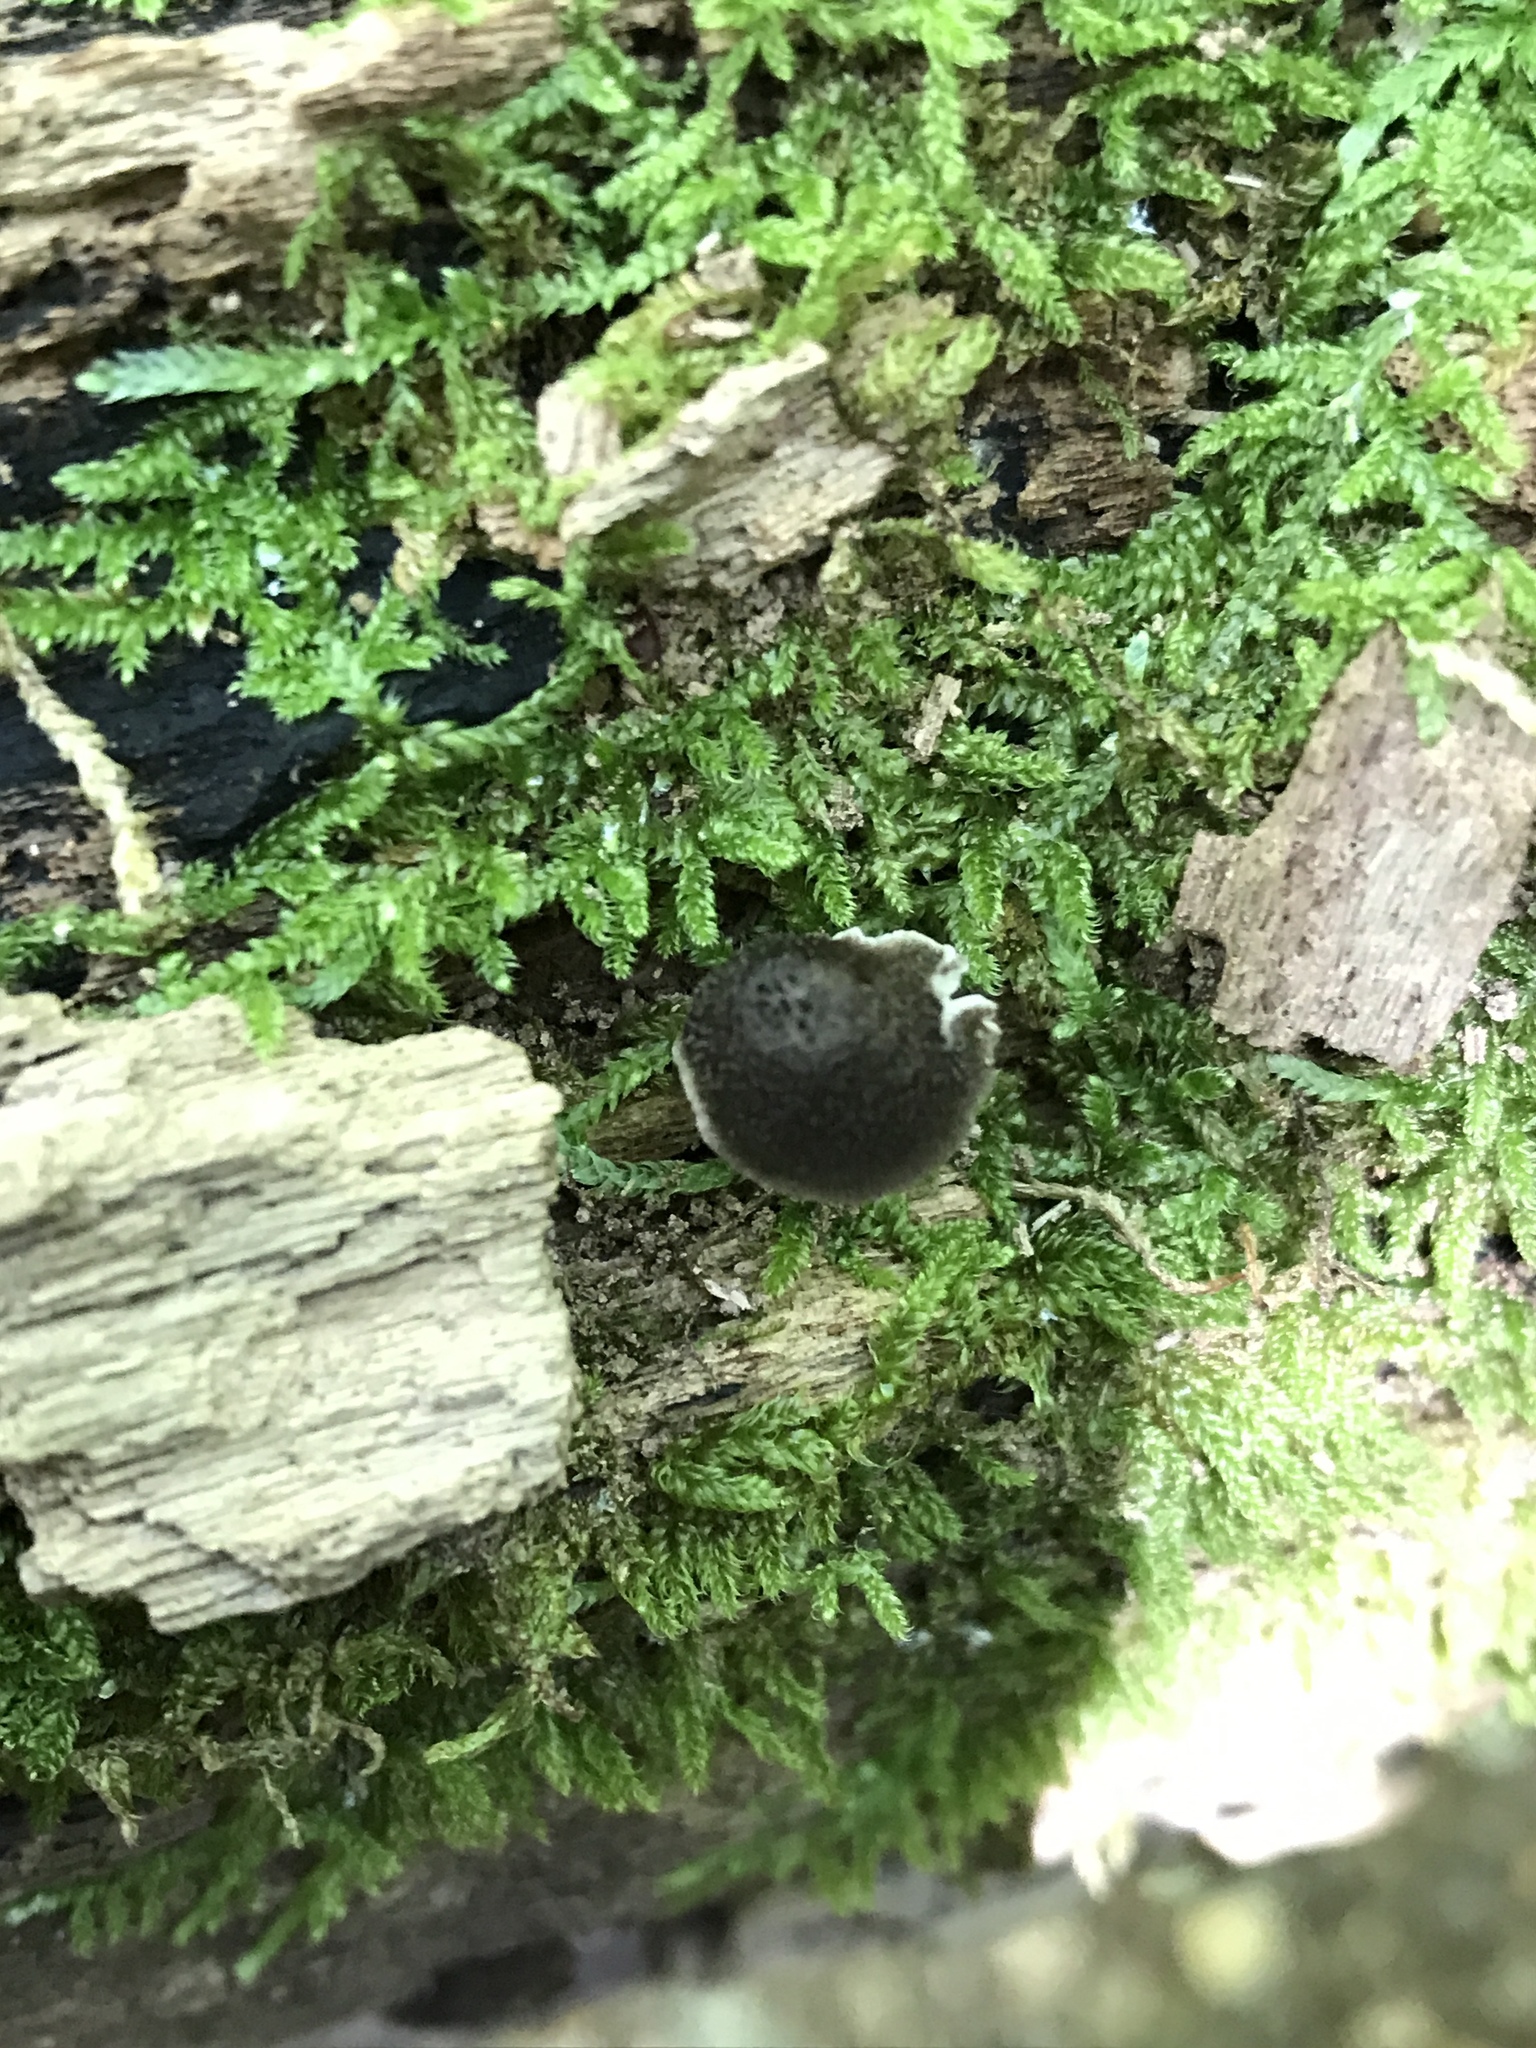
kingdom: Fungi
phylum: Basidiomycota
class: Agaricomycetes
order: Agaricales
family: Pluteaceae
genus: Pluteus
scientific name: Pluteus septocystidiatus
